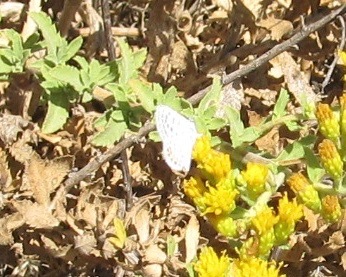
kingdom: Animalia
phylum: Arthropoda
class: Insecta
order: Lepidoptera
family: Lycaenidae
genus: Icaricia
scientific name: Icaricia acmon
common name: Acmon blue
